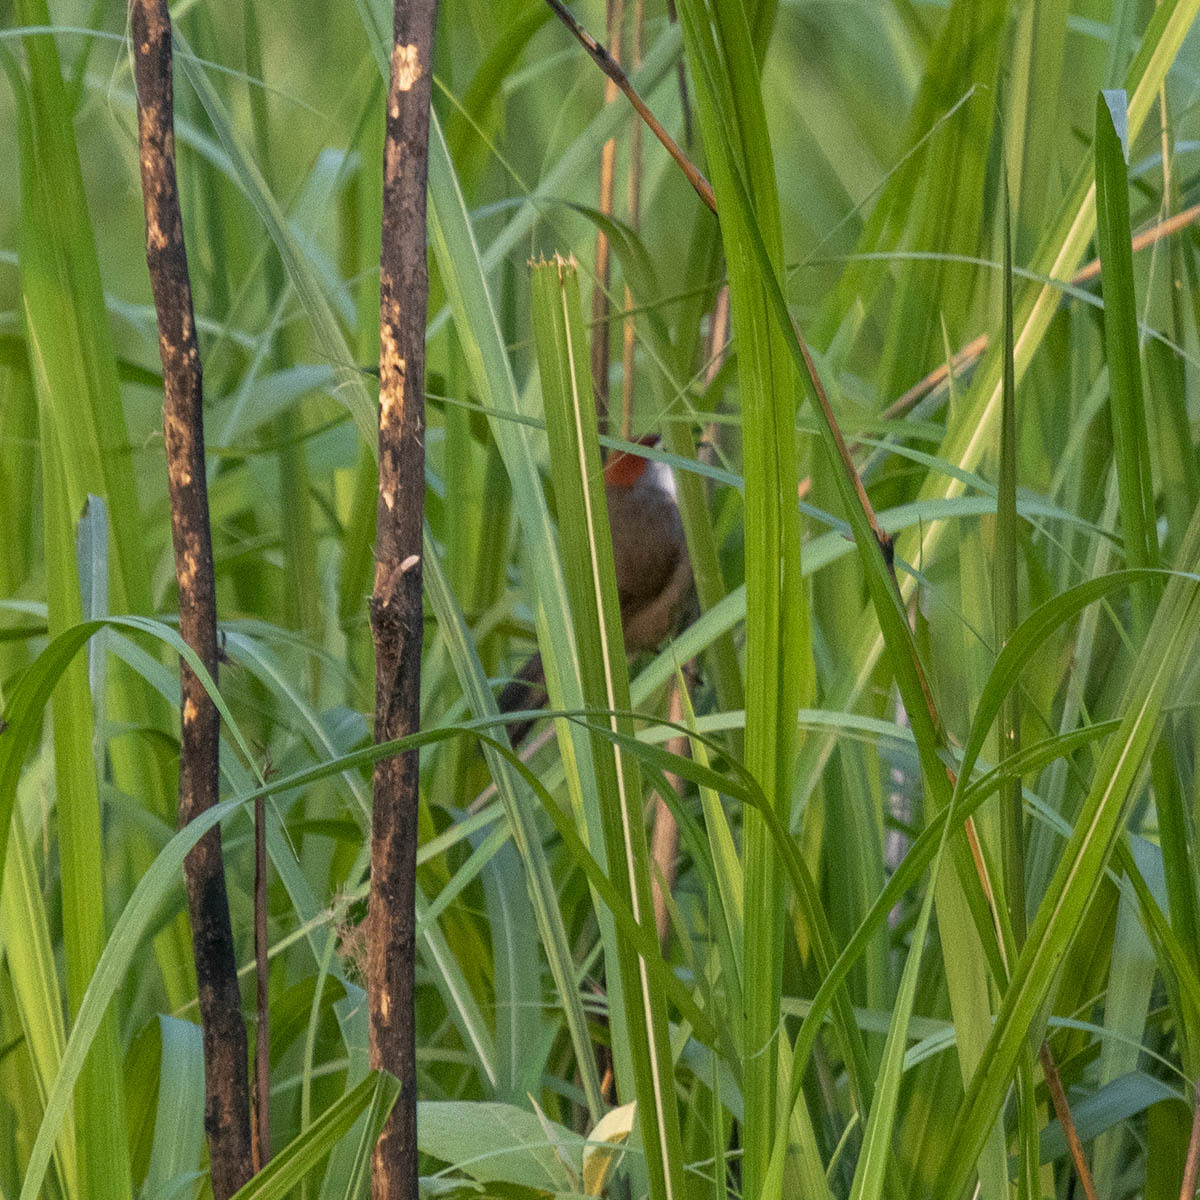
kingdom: Animalia
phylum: Chordata
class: Aves
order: Passeriformes
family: Timaliidae
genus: Stachyridopsis
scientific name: Stachyridopsis ruficeps
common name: Rufous-capped babbler
